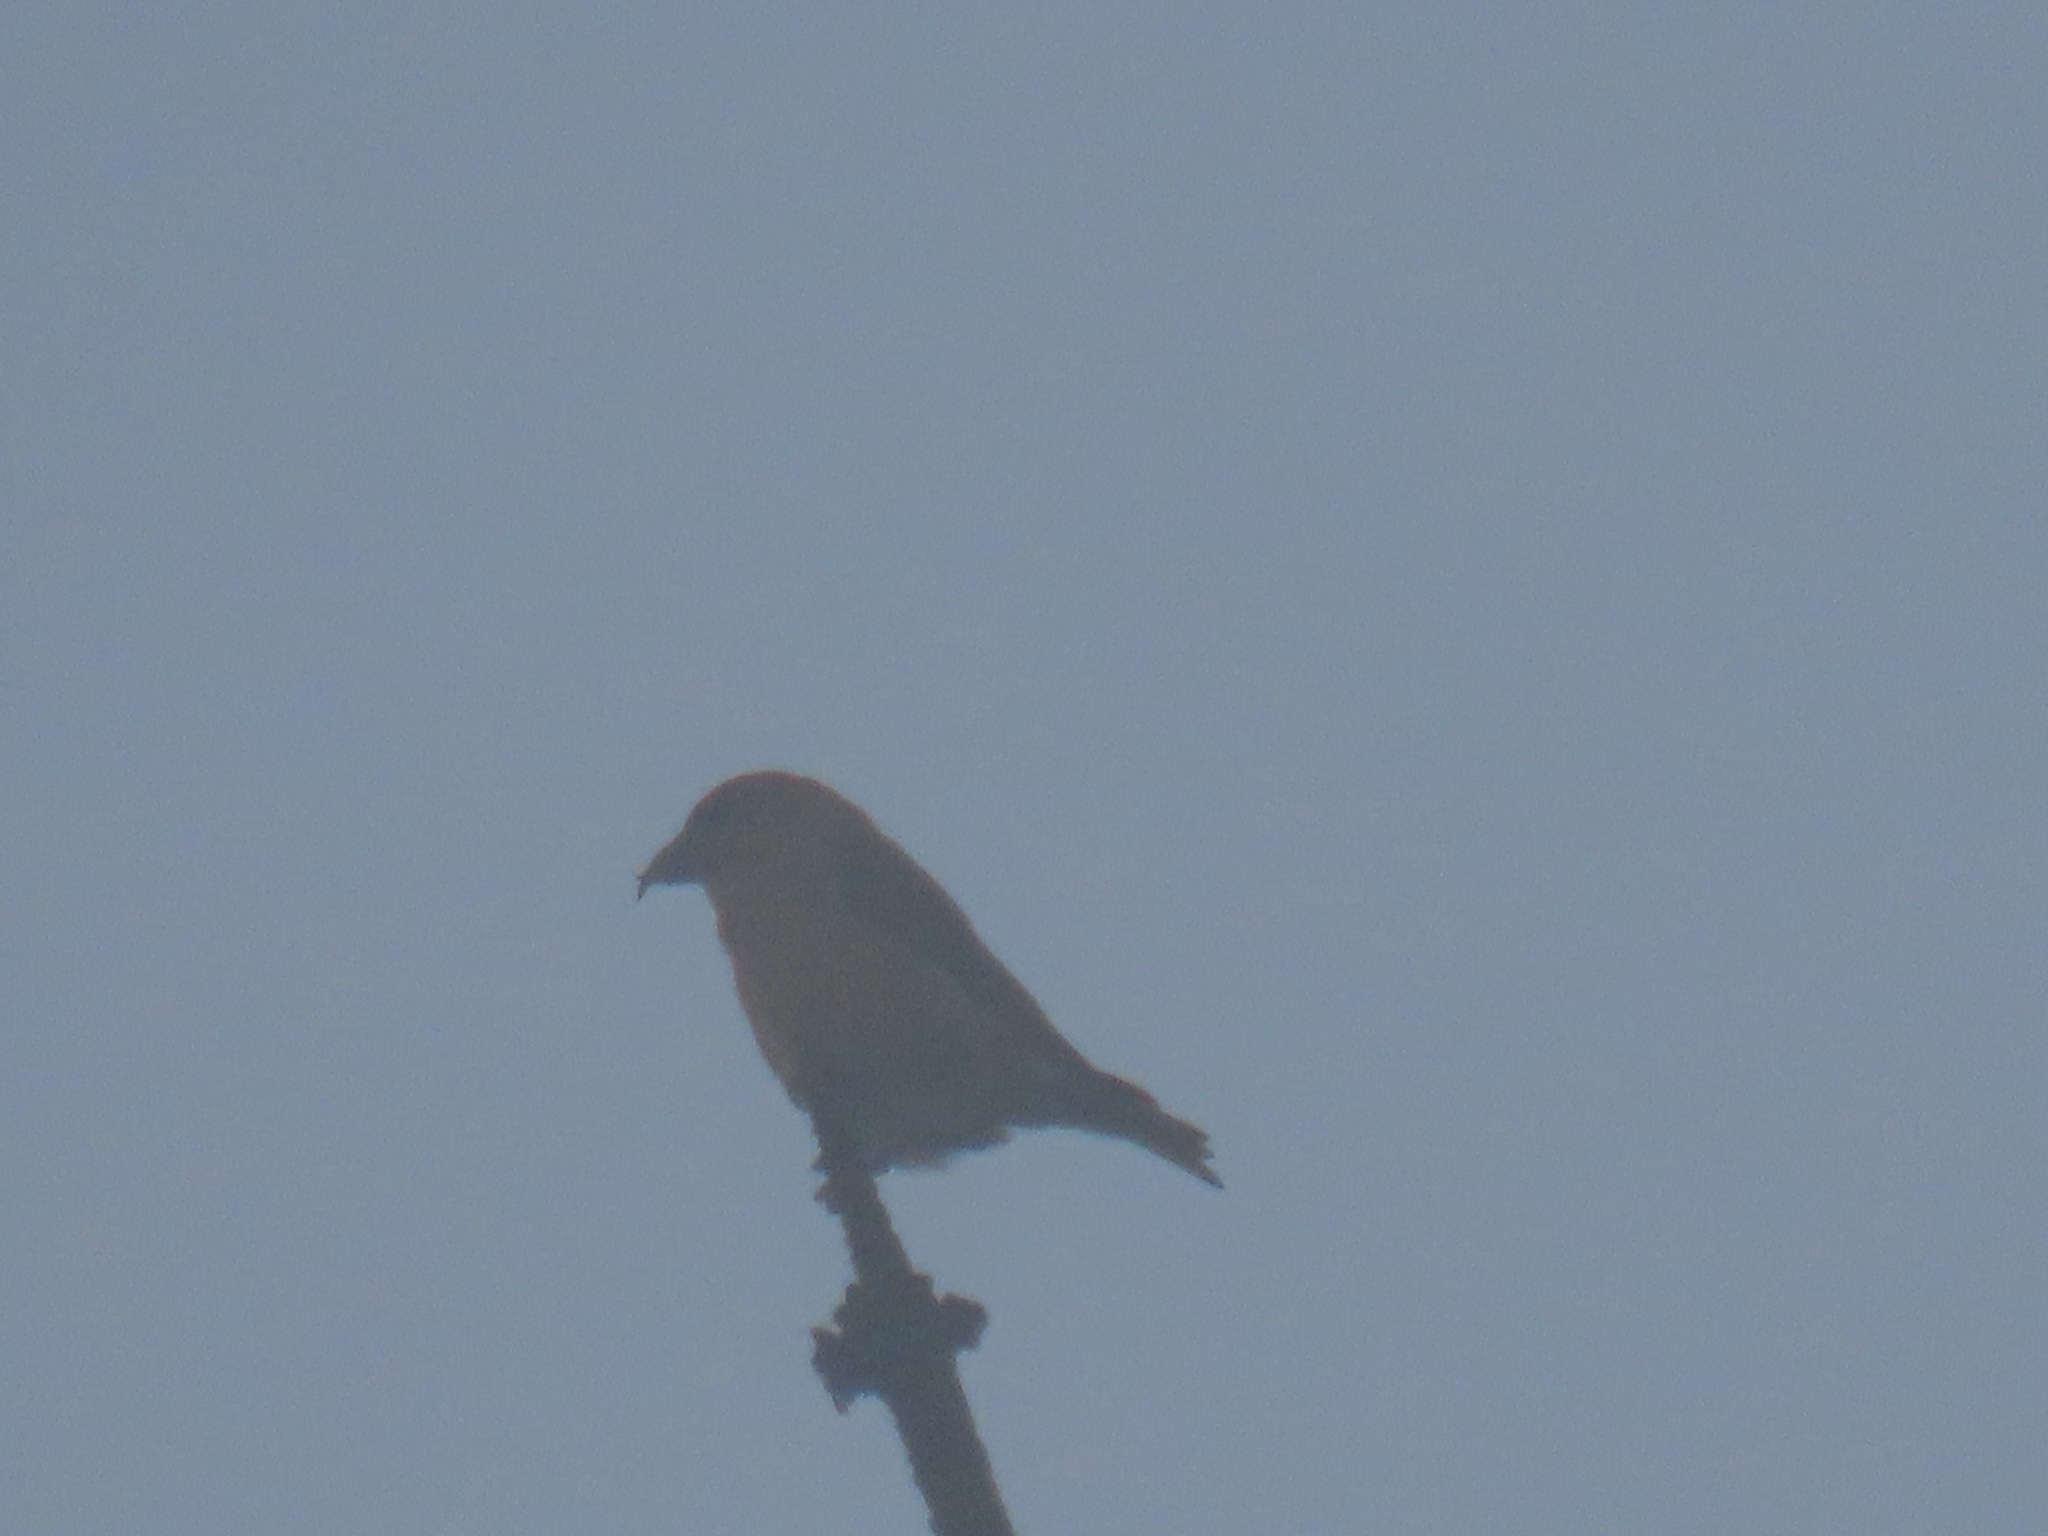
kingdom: Animalia
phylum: Chordata
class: Aves
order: Passeriformes
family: Fringillidae
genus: Loxia
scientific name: Loxia curvirostra
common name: Red crossbill
